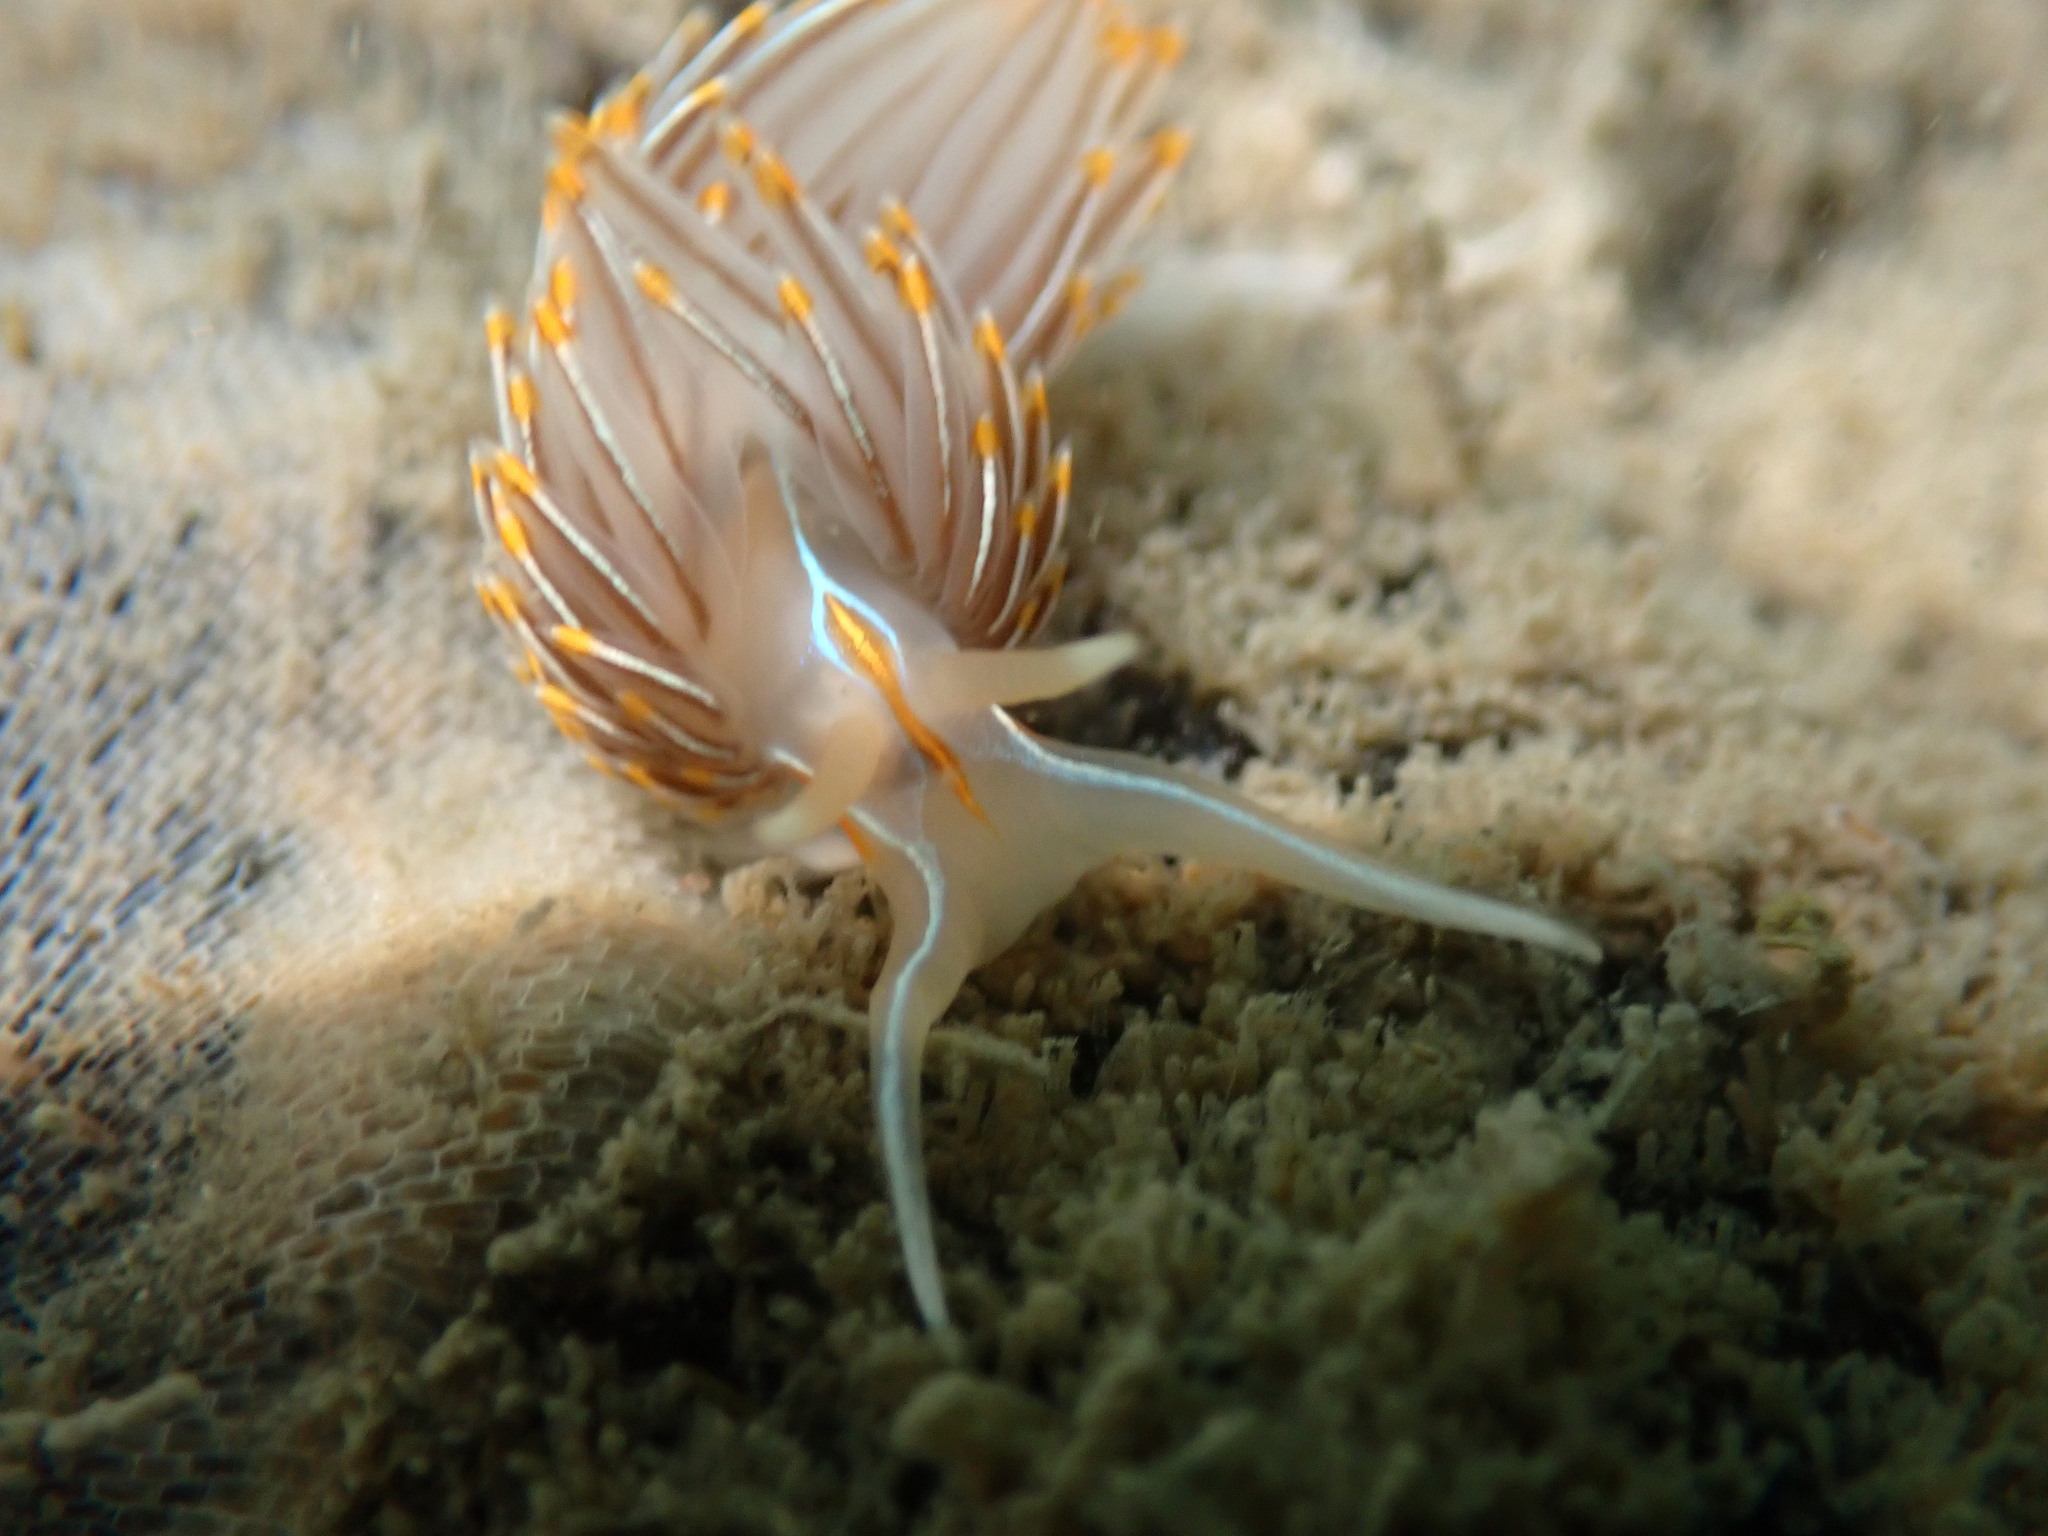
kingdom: Animalia
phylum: Mollusca
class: Gastropoda
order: Nudibranchia
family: Myrrhinidae
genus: Hermissenda
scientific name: Hermissenda crassicornis
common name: Hermissenda
